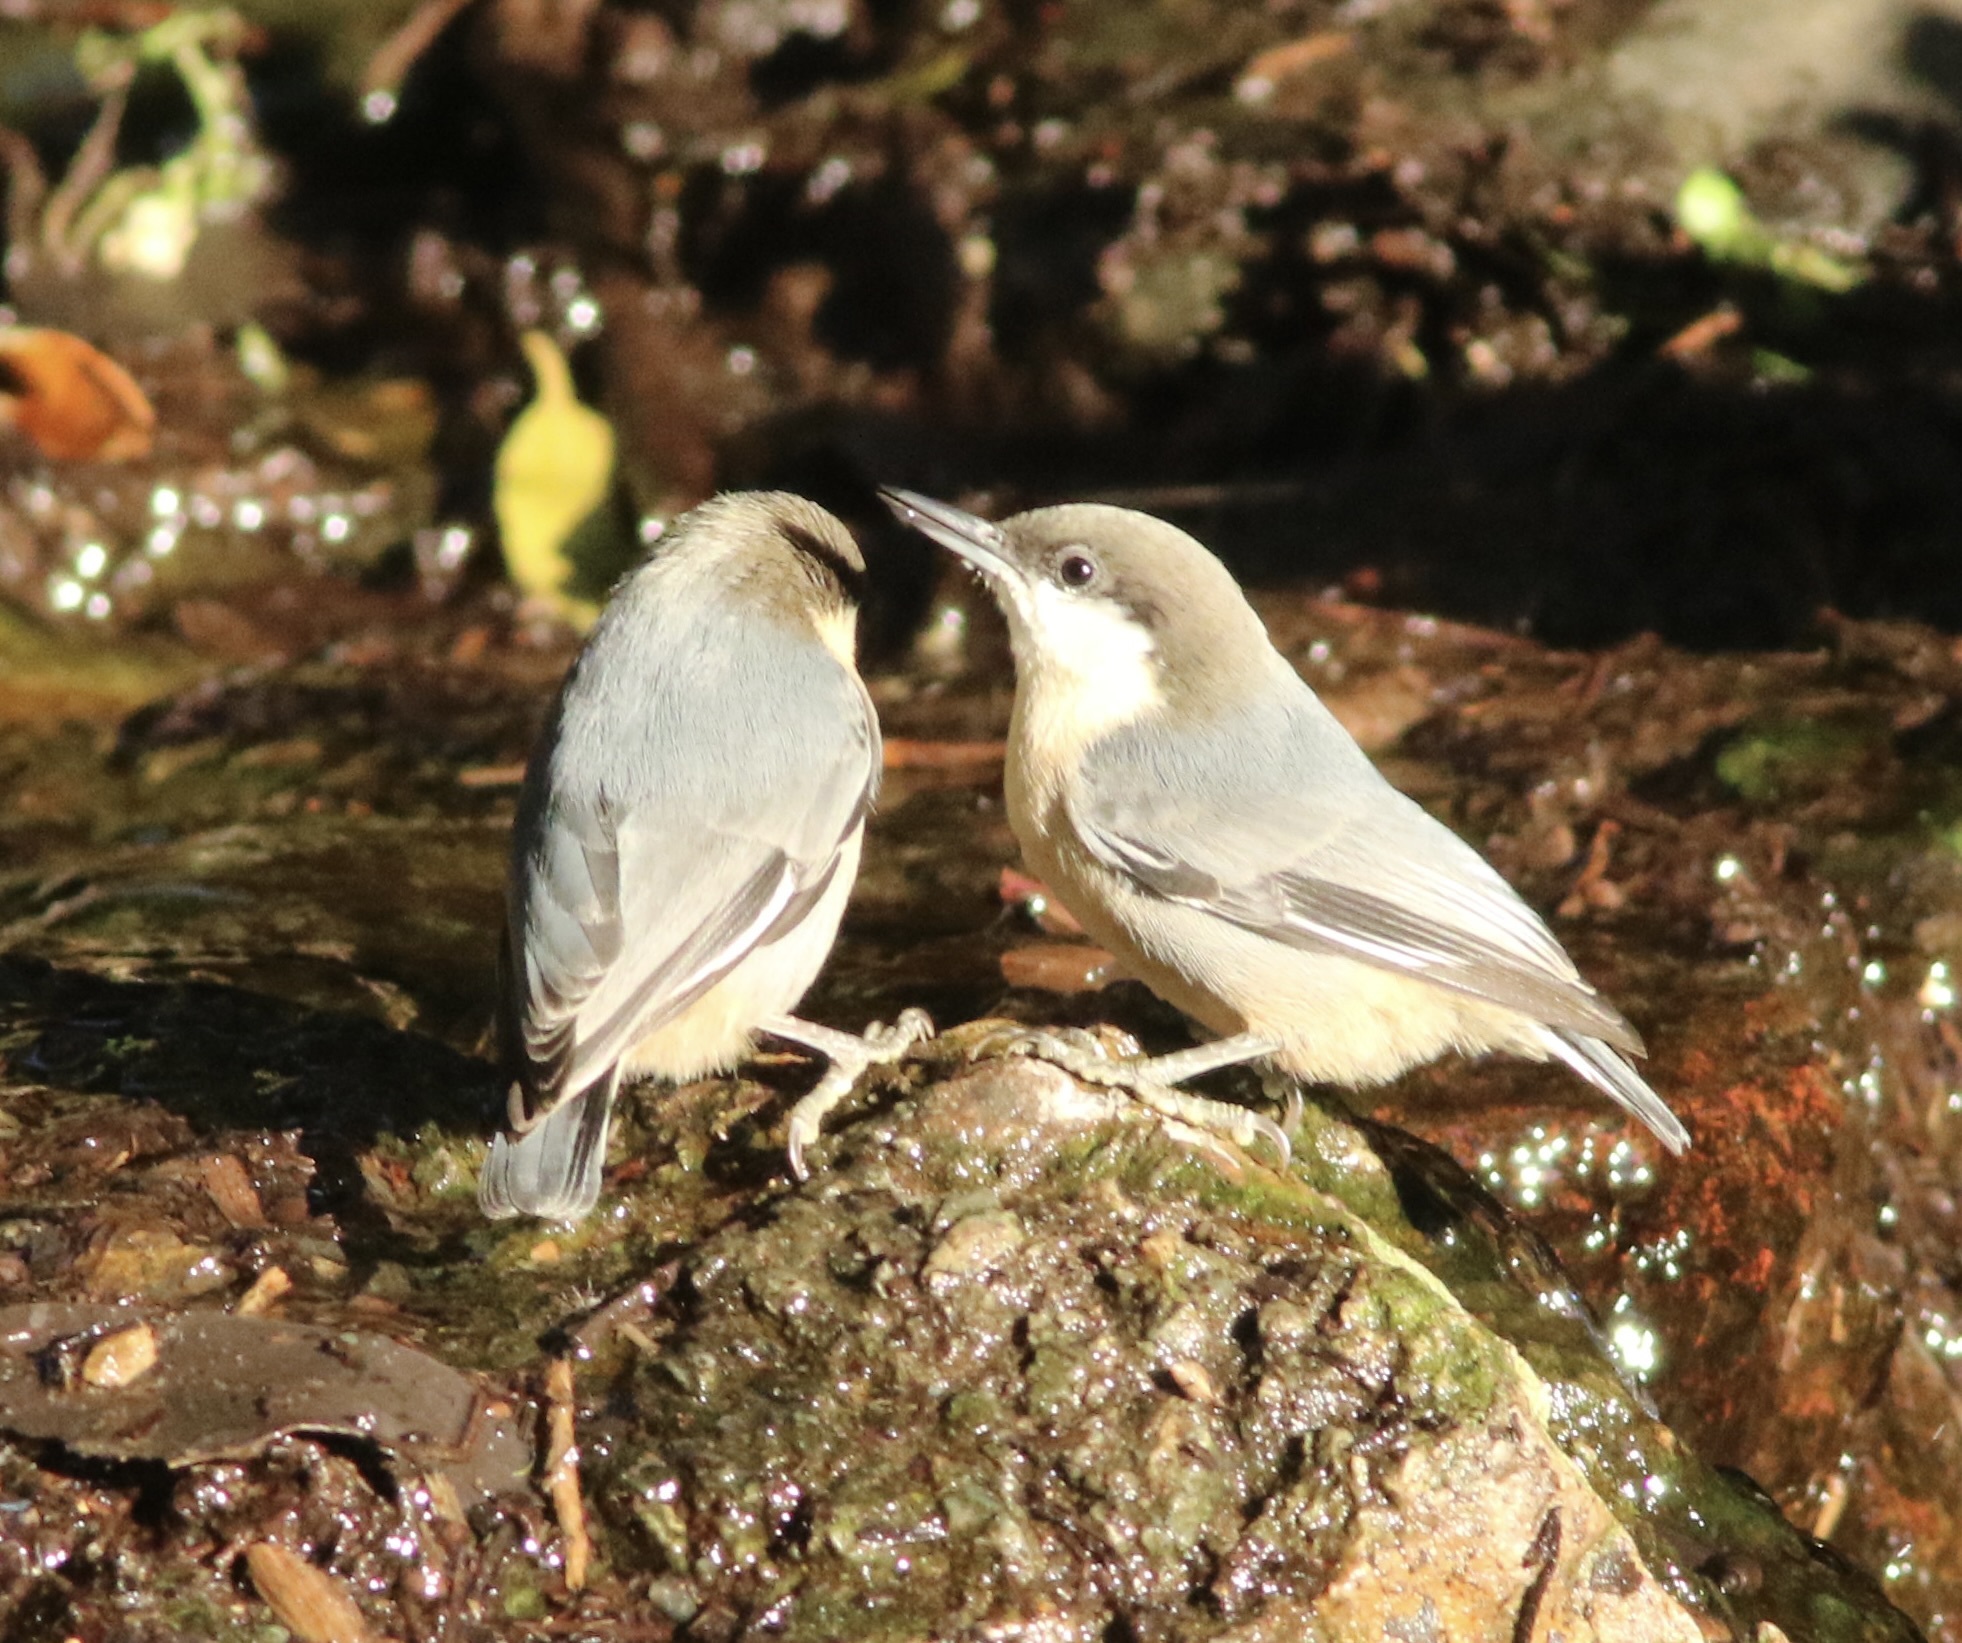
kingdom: Animalia
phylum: Chordata
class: Aves
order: Passeriformes
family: Sittidae
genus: Sitta
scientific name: Sitta pygmaea
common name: Pygmy nuthatch
